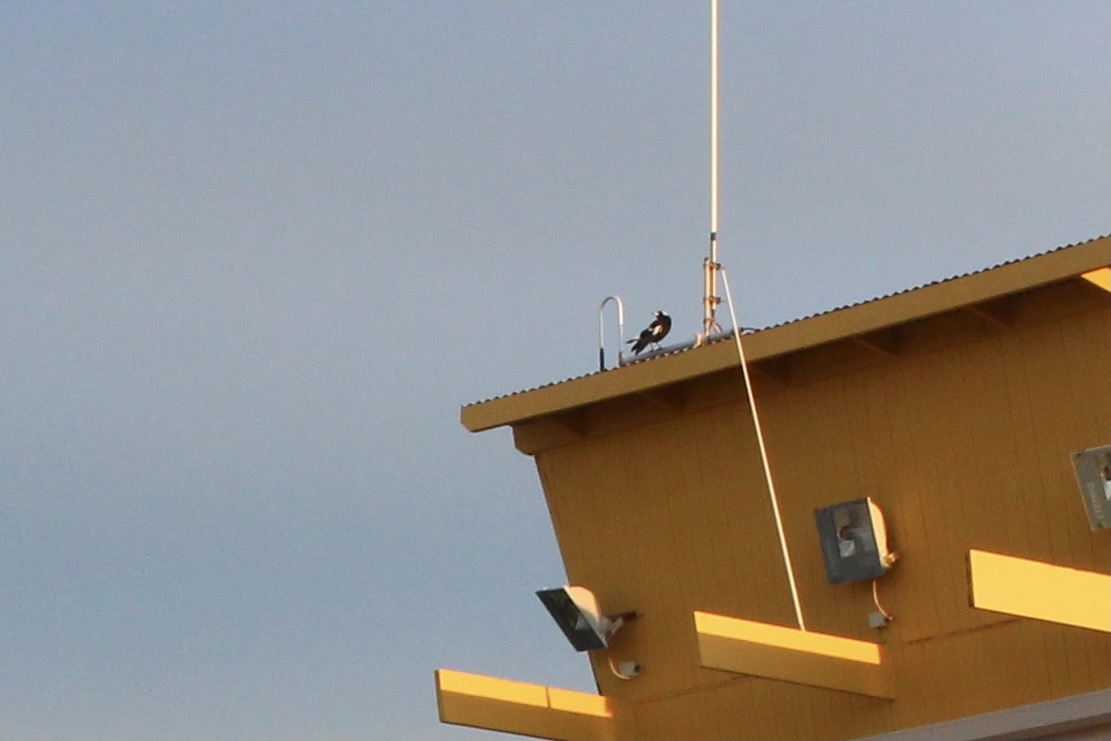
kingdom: Animalia
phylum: Chordata
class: Aves
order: Passeriformes
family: Cracticidae
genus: Gymnorhina
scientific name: Gymnorhina tibicen
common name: Australian magpie
